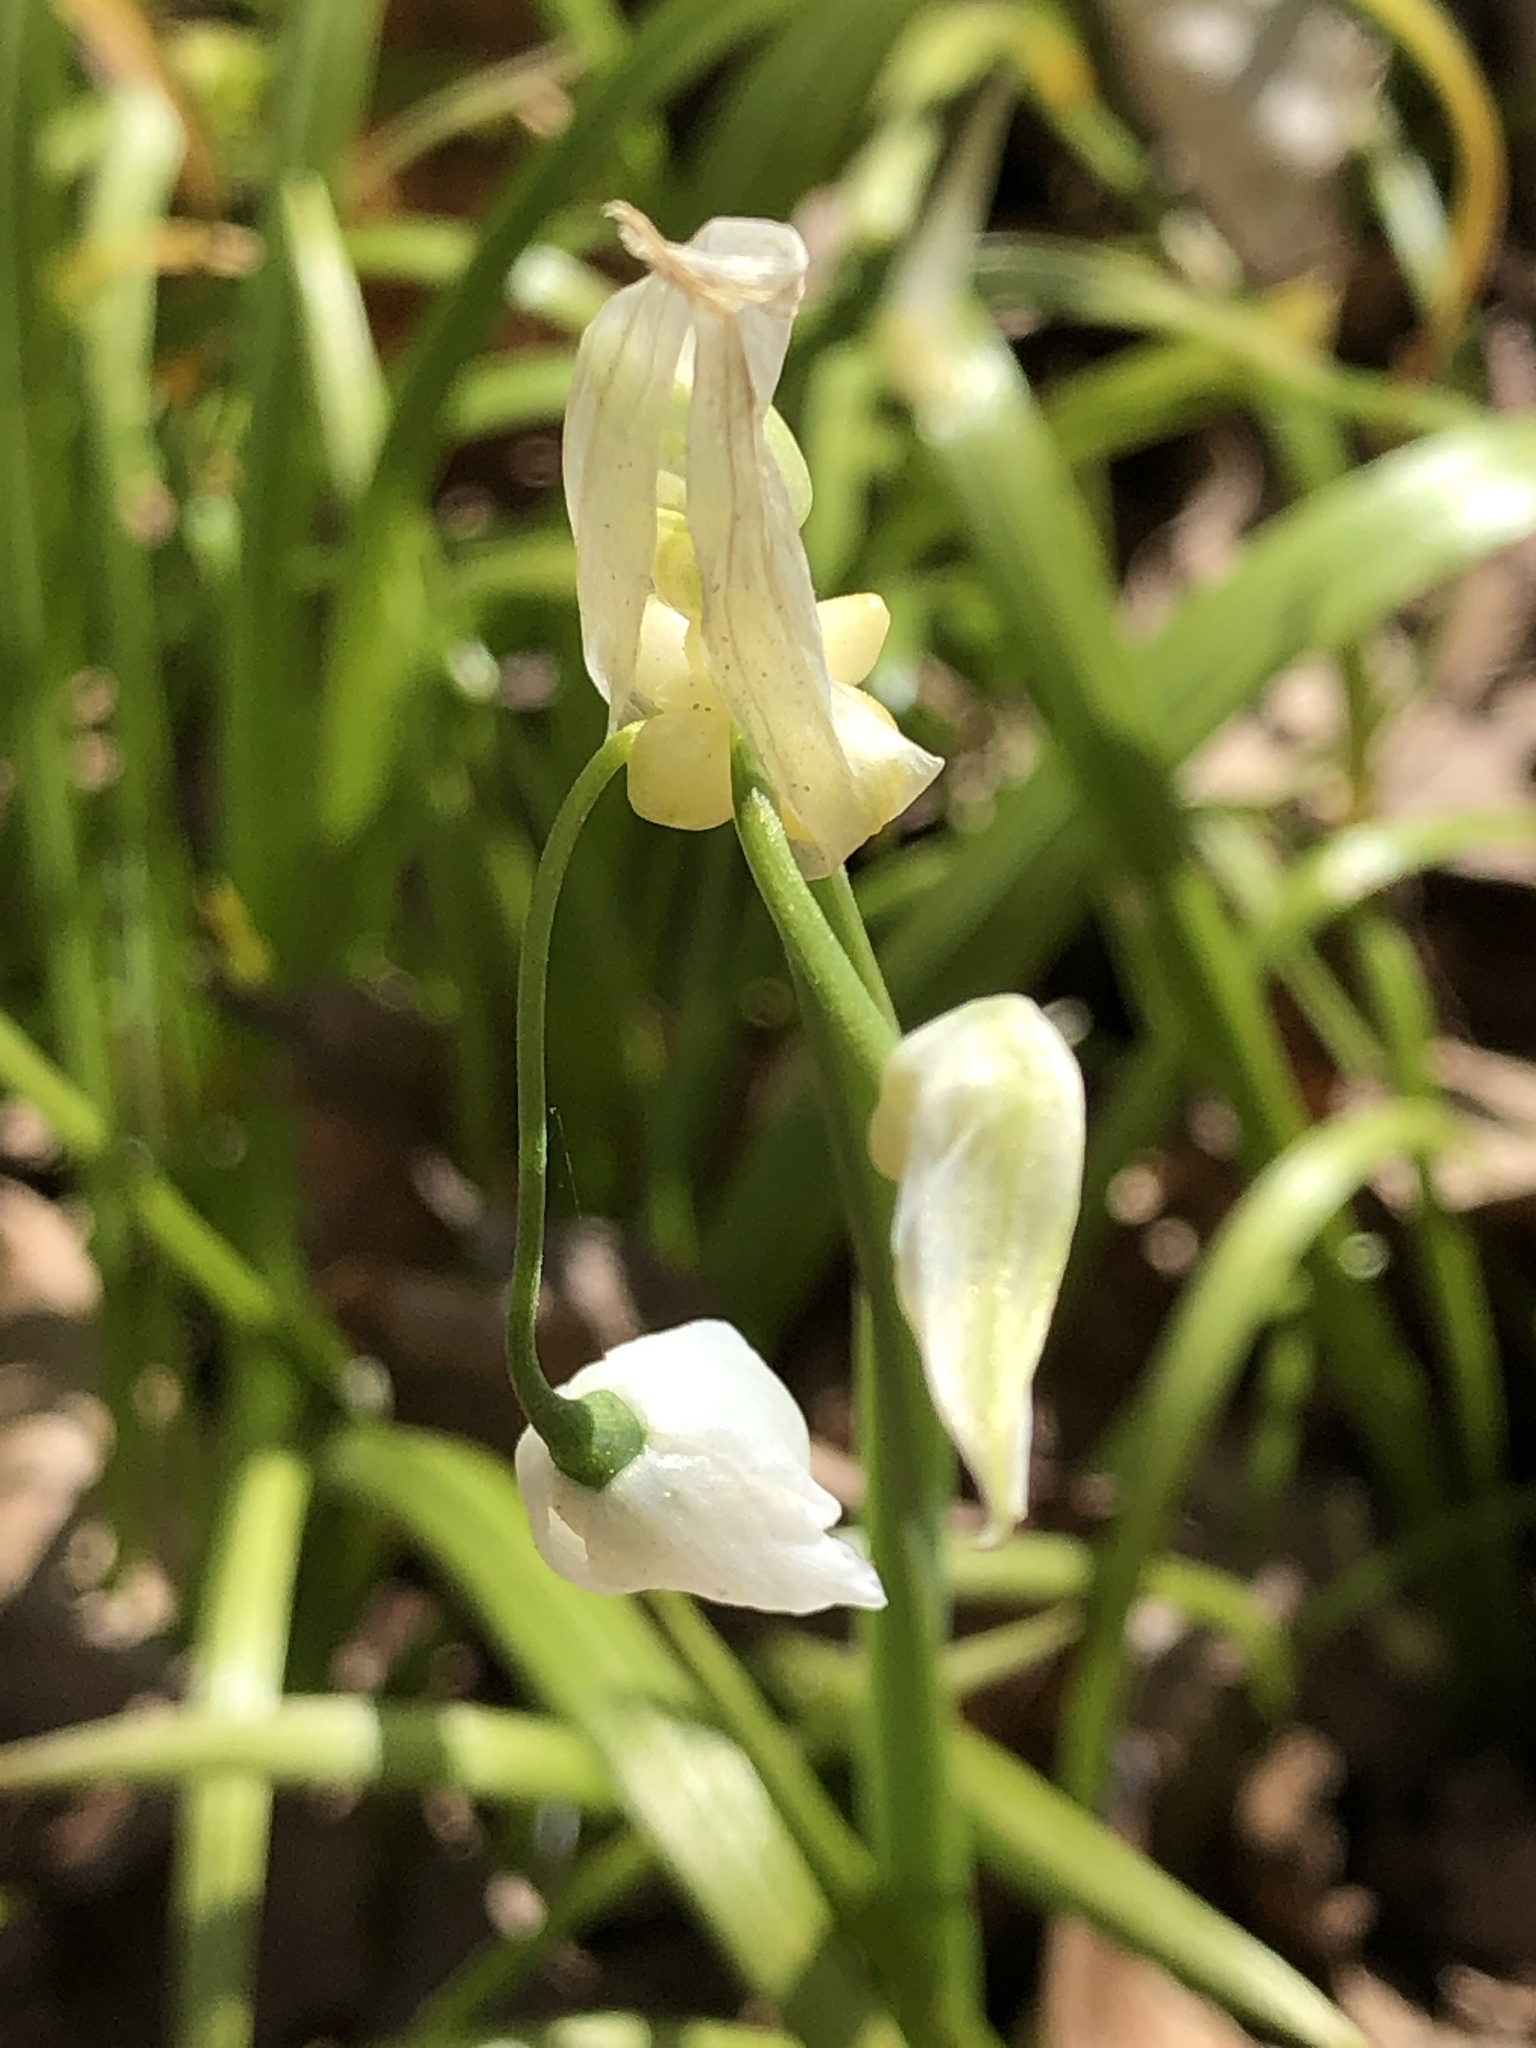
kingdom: Plantae
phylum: Tracheophyta
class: Liliopsida
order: Asparagales
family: Amaryllidaceae
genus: Allium
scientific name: Allium paradoxum
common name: Few-flowered garlic
